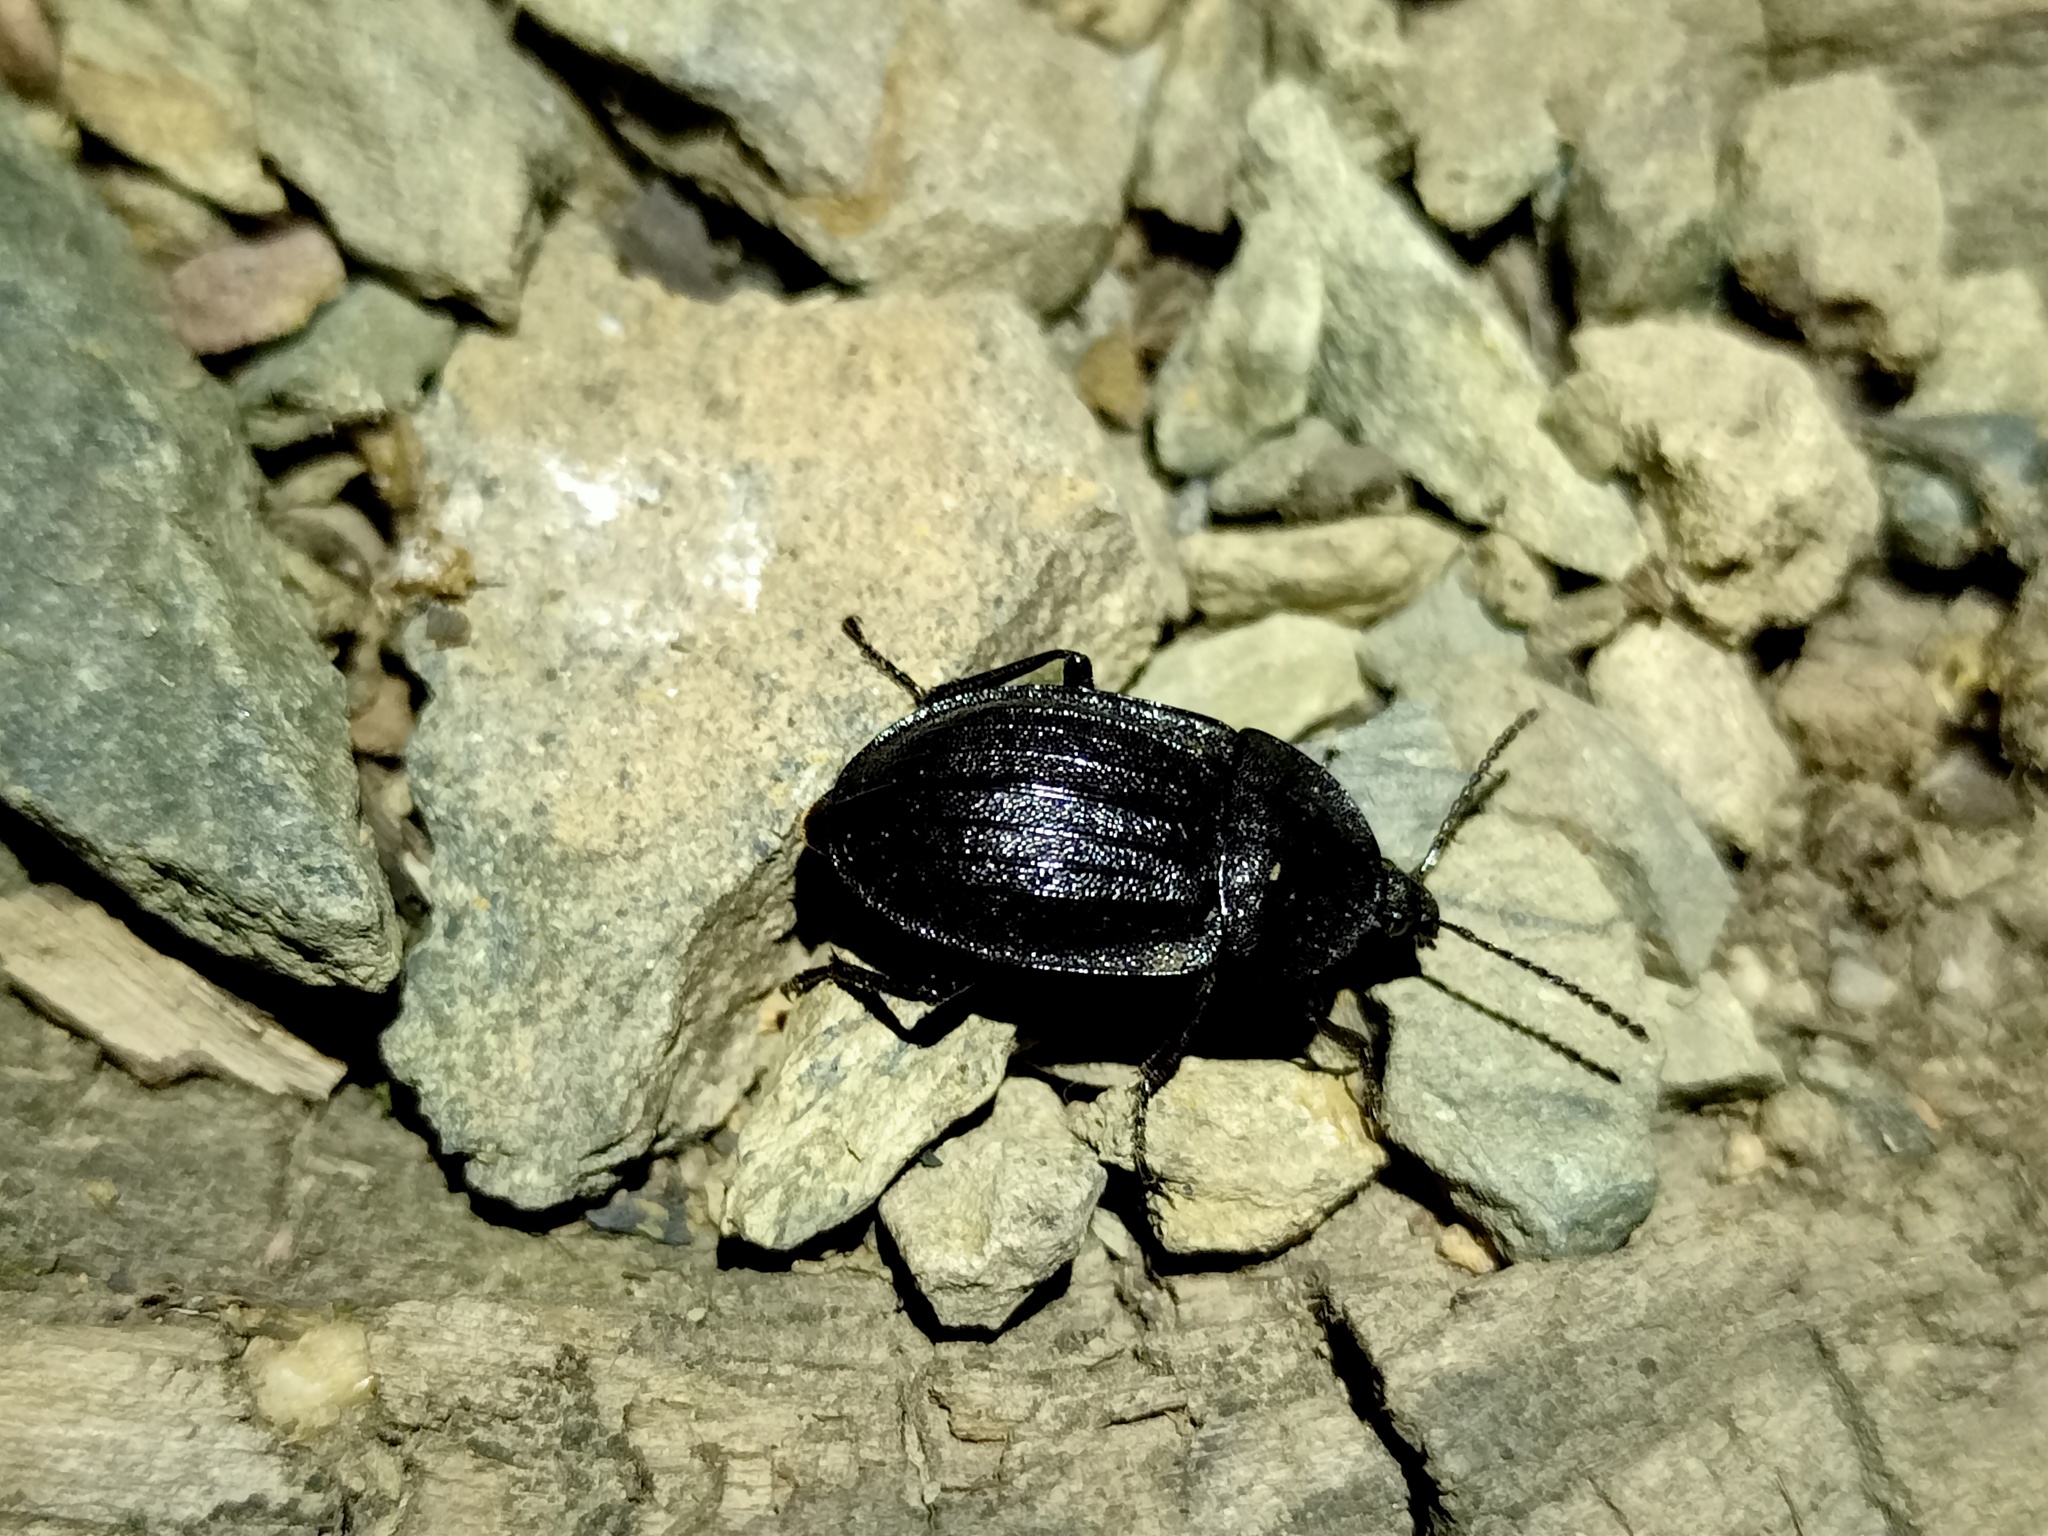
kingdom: Animalia
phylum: Arthropoda
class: Insecta
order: Coleoptera
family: Staphylinidae
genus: Silpha
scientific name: Silpha atrata
